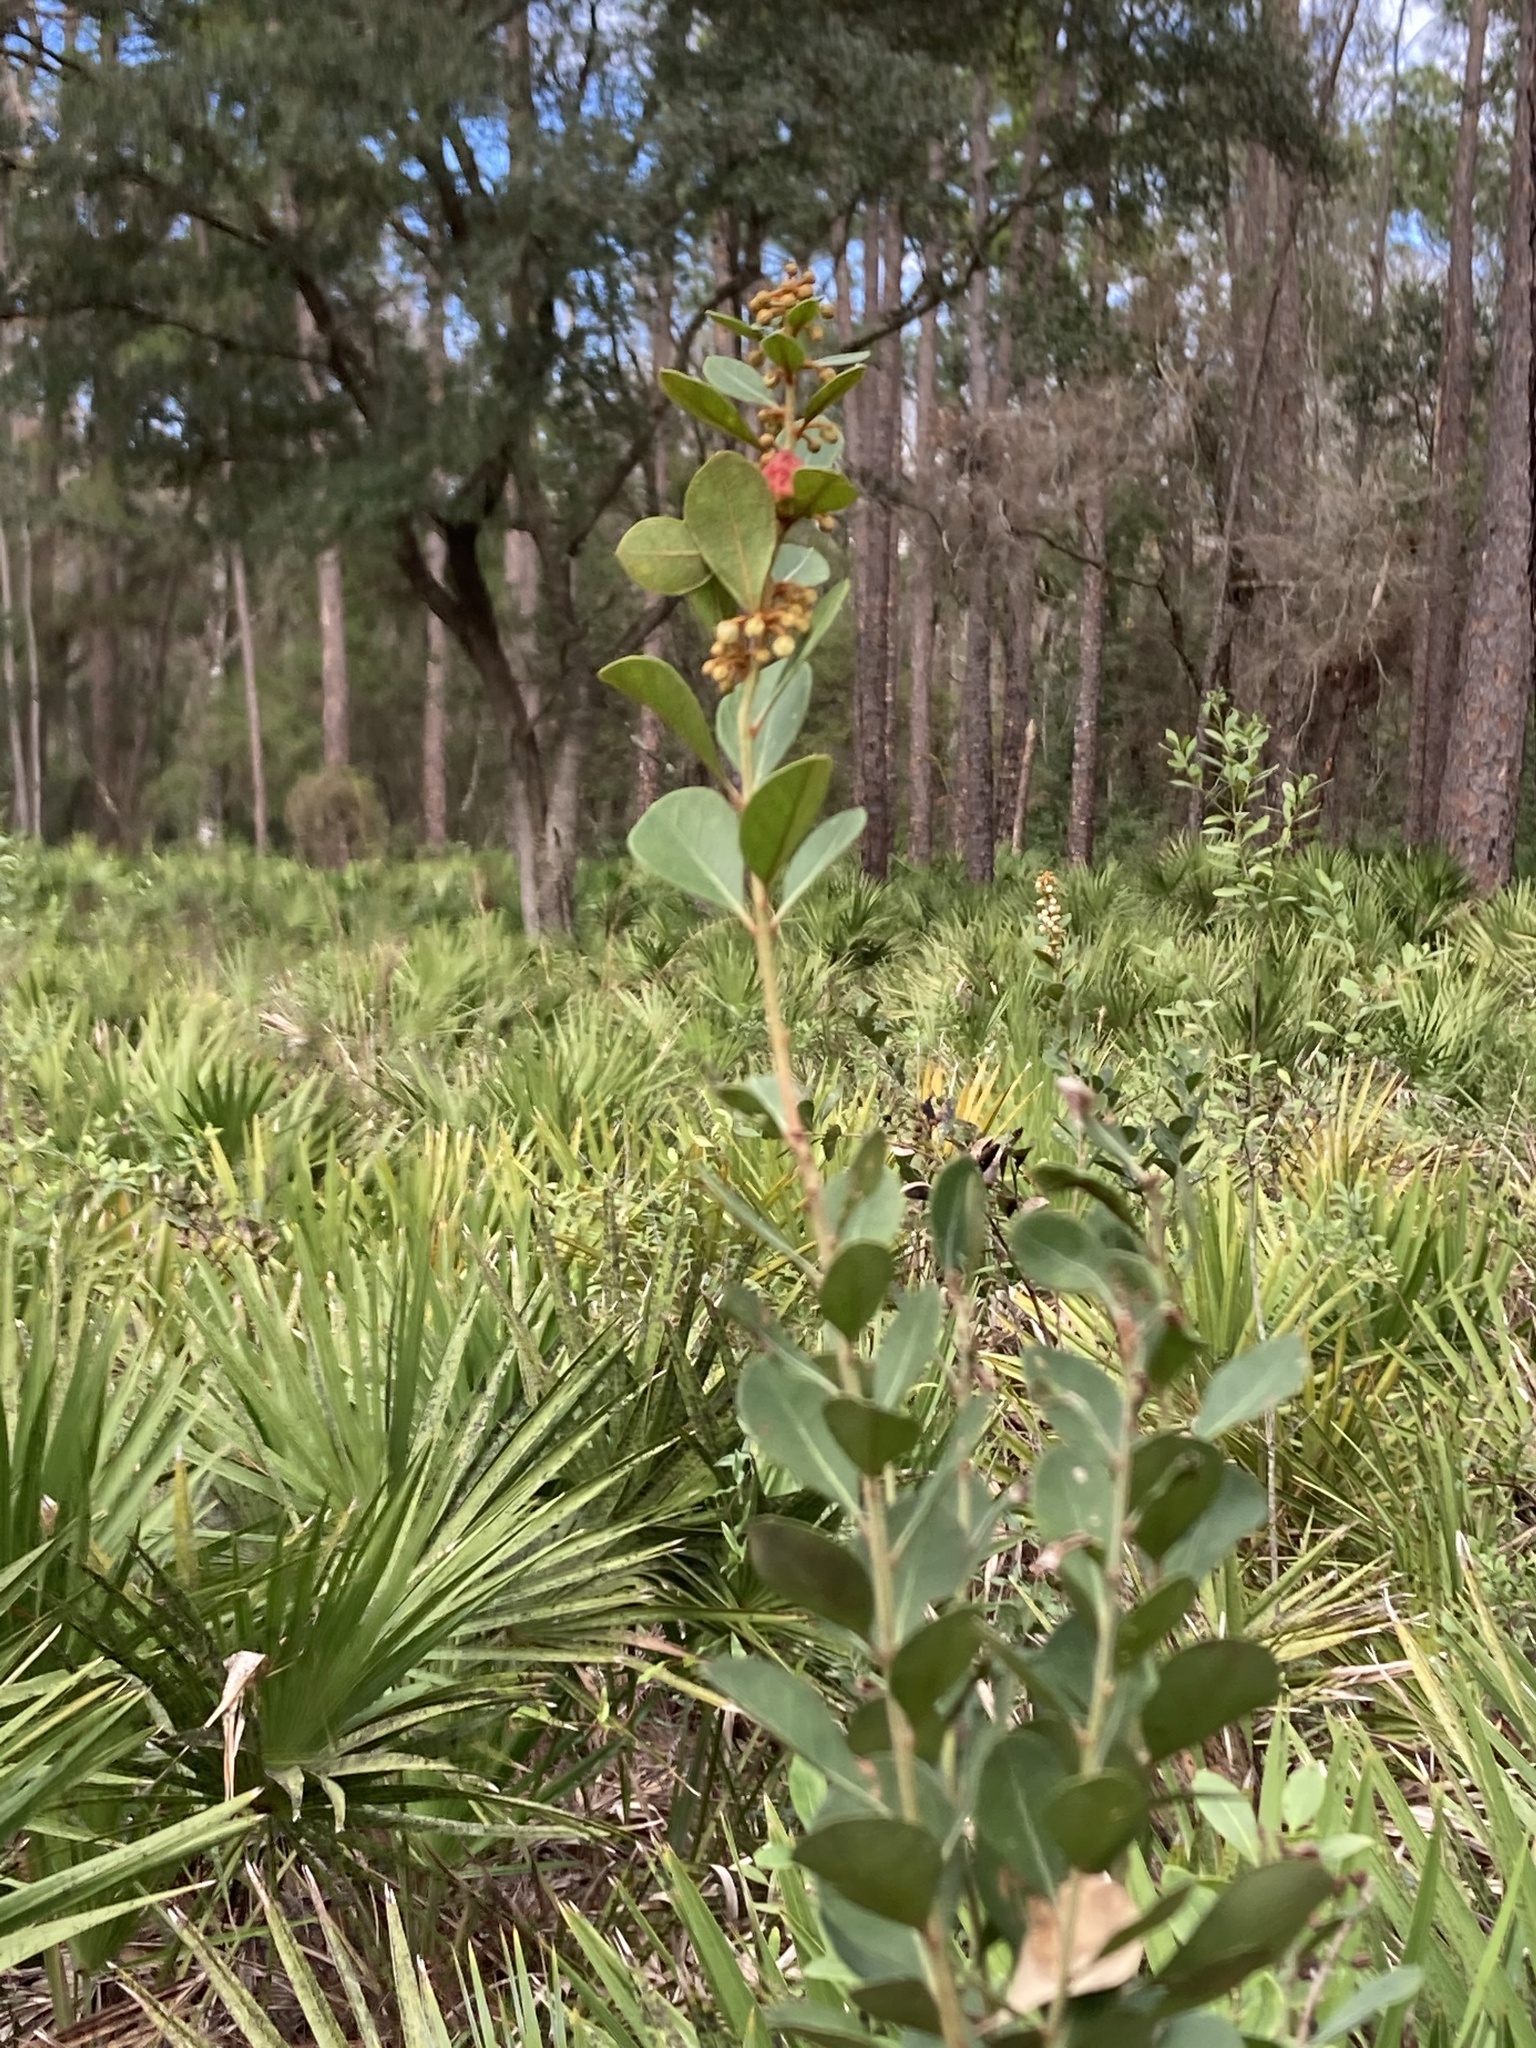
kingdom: Plantae
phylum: Tracheophyta
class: Magnoliopsida
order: Ericales
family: Ericaceae
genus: Lyonia
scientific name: Lyonia fruticosa
